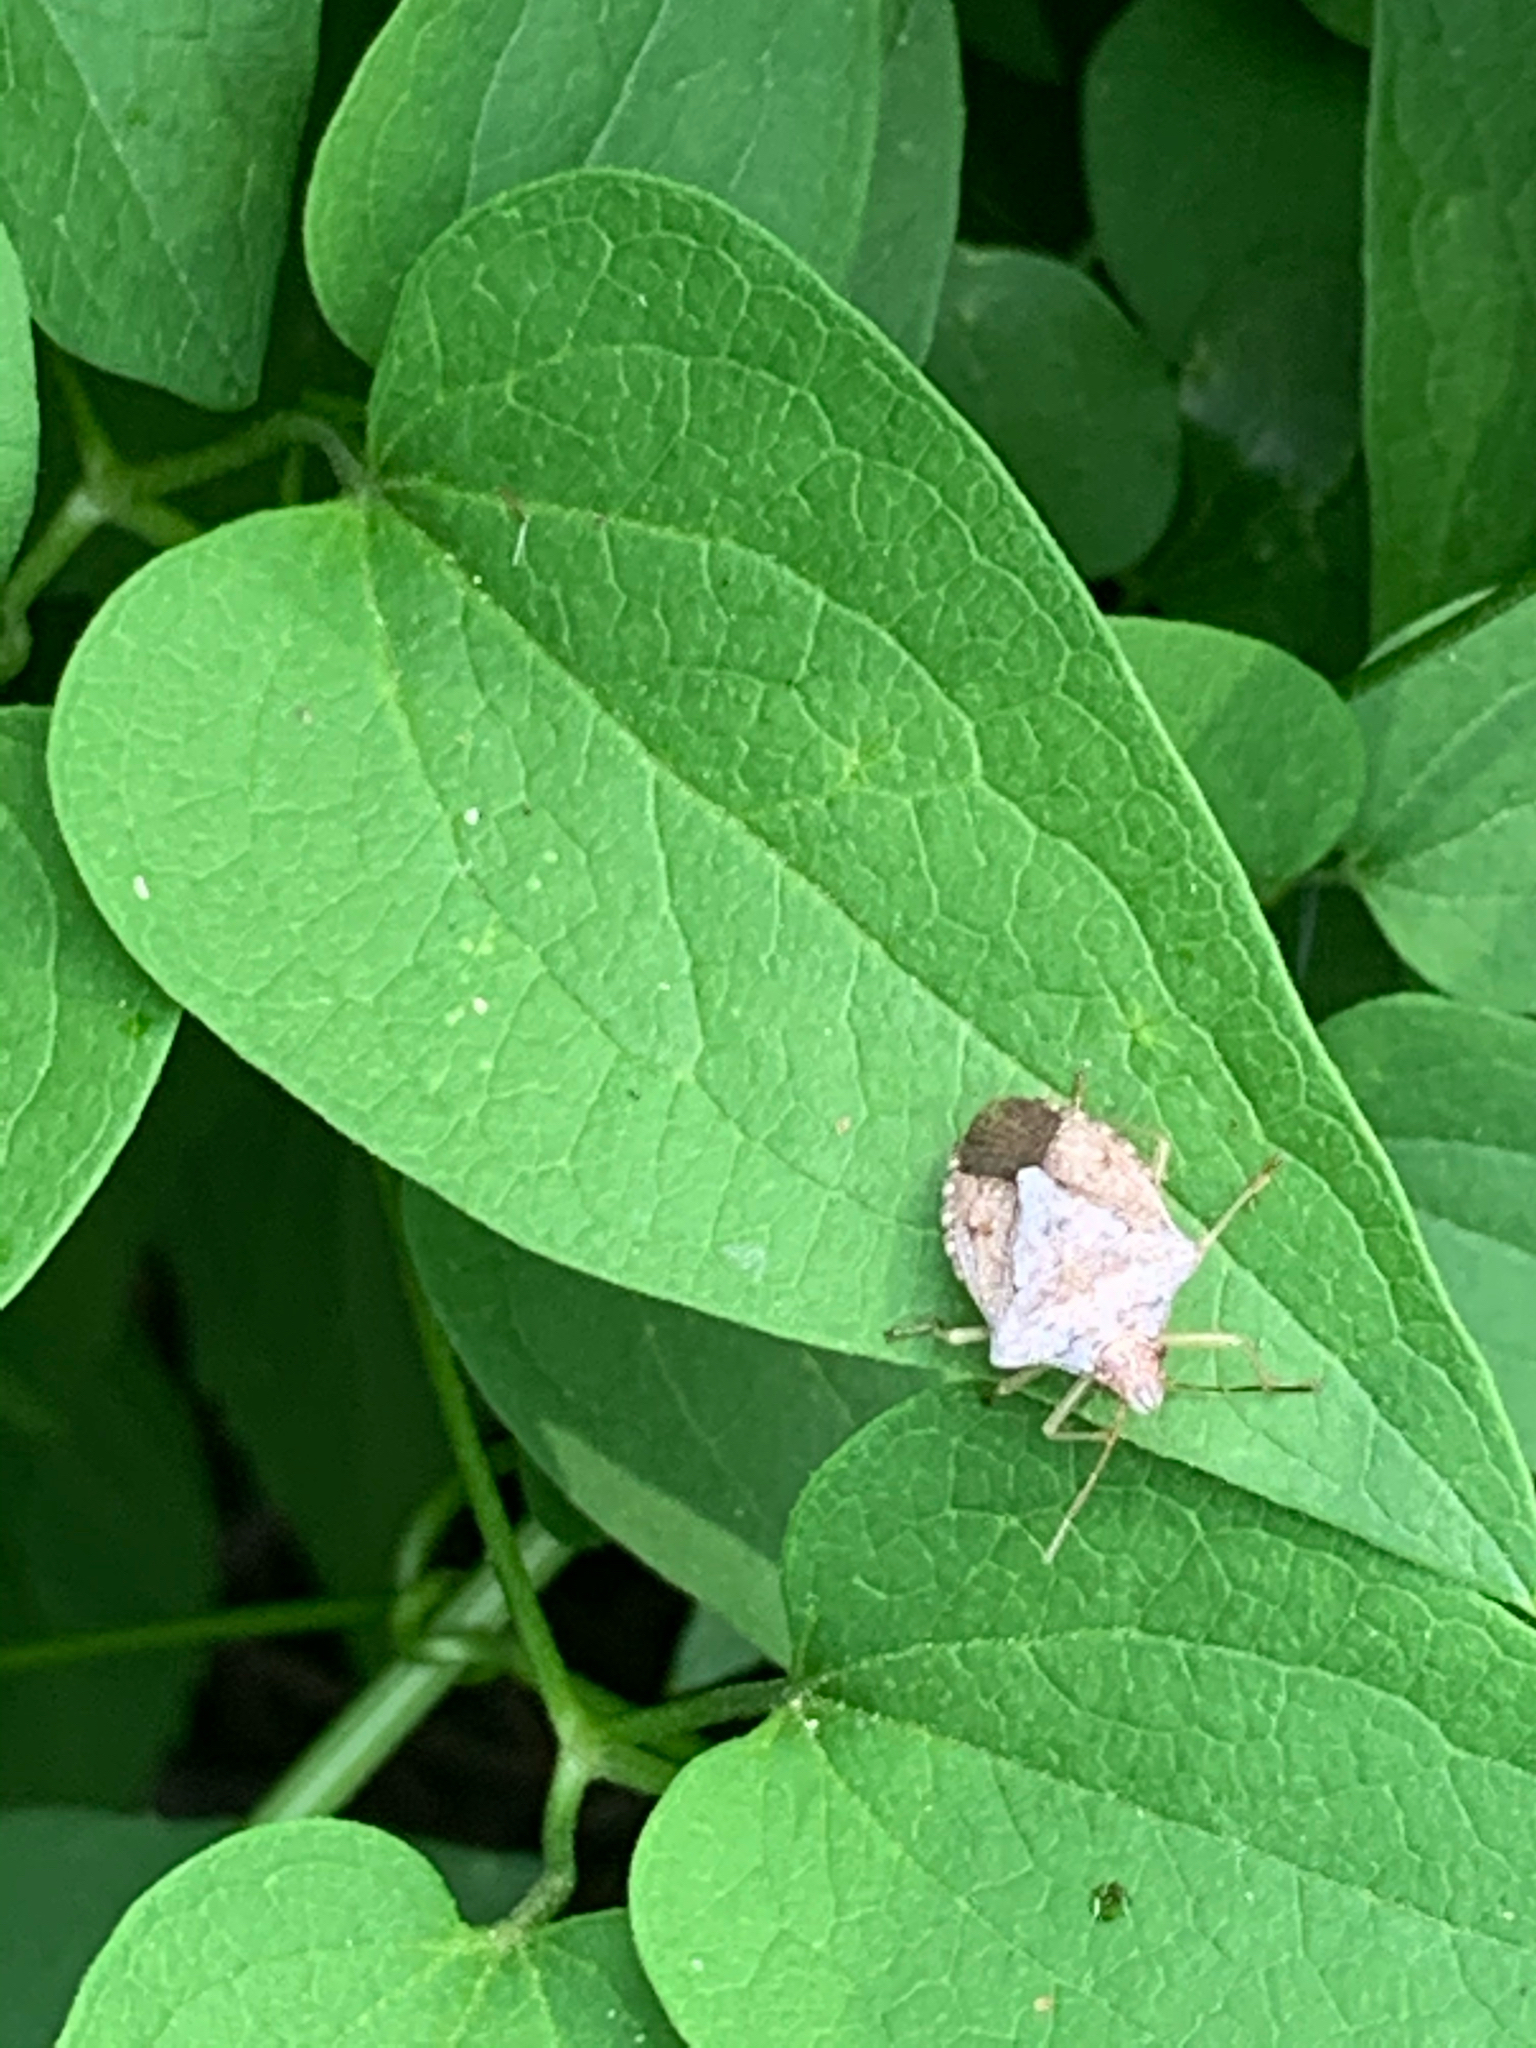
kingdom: Animalia
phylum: Arthropoda
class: Insecta
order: Hemiptera
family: Pentatomidae
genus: Euschistus
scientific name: Euschistus servus
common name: Brown stink bug
